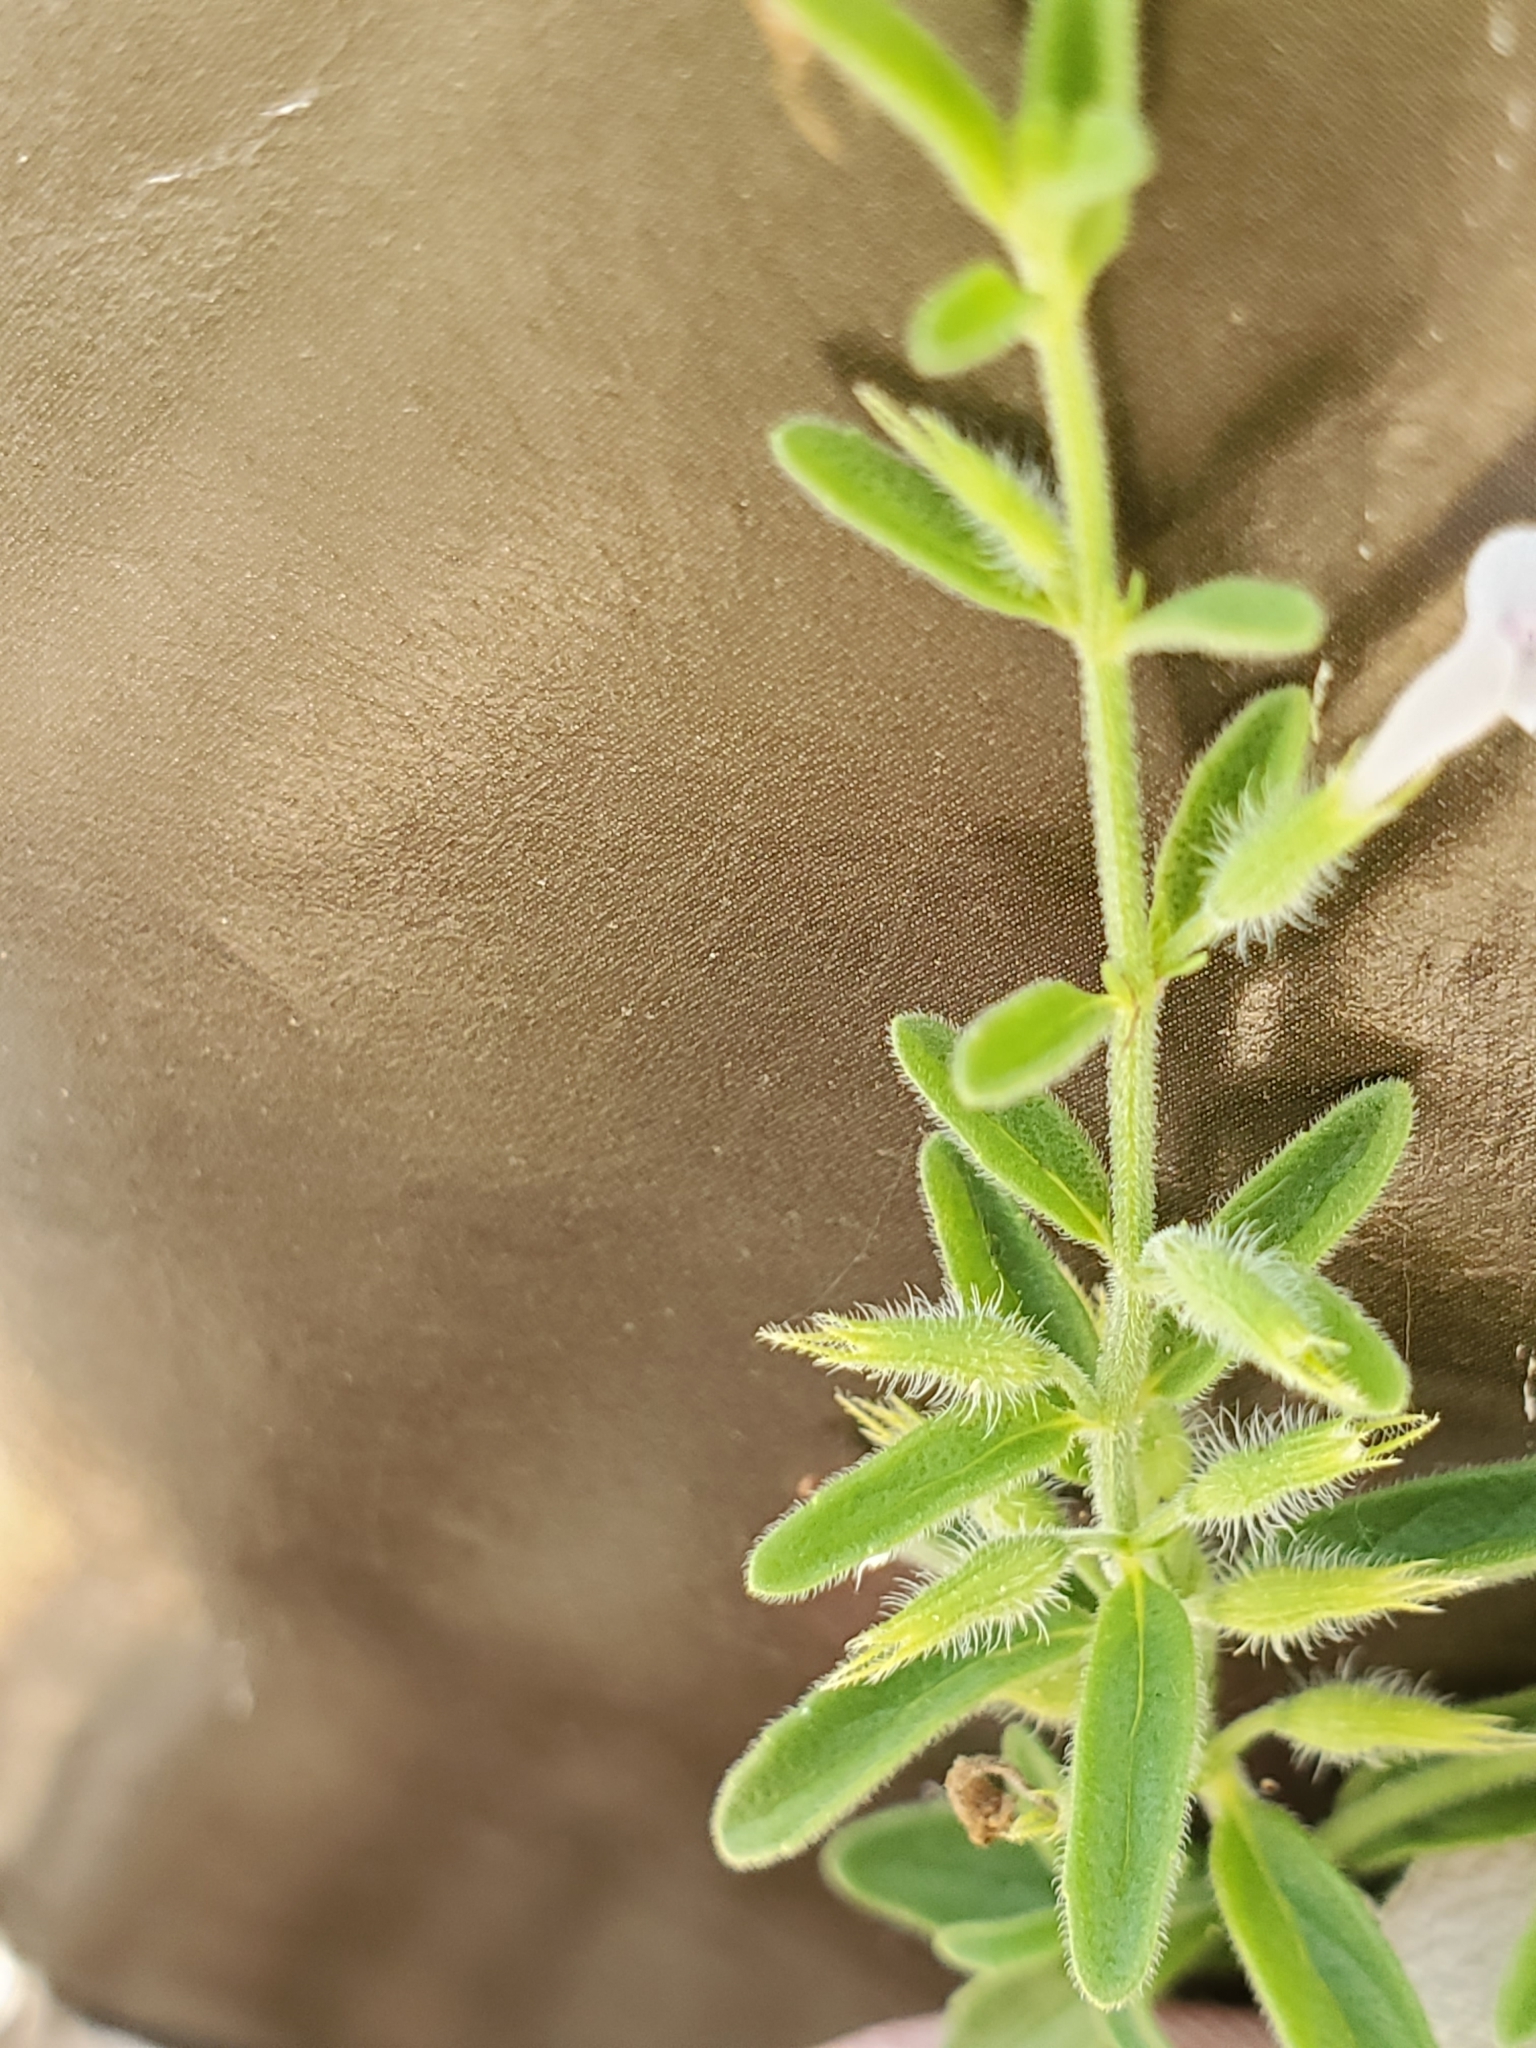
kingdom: Plantae
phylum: Tracheophyta
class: Magnoliopsida
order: Lamiales
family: Lamiaceae
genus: Hedeoma
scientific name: Hedeoma reverchonii
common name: Reverchon's false penny-royal
